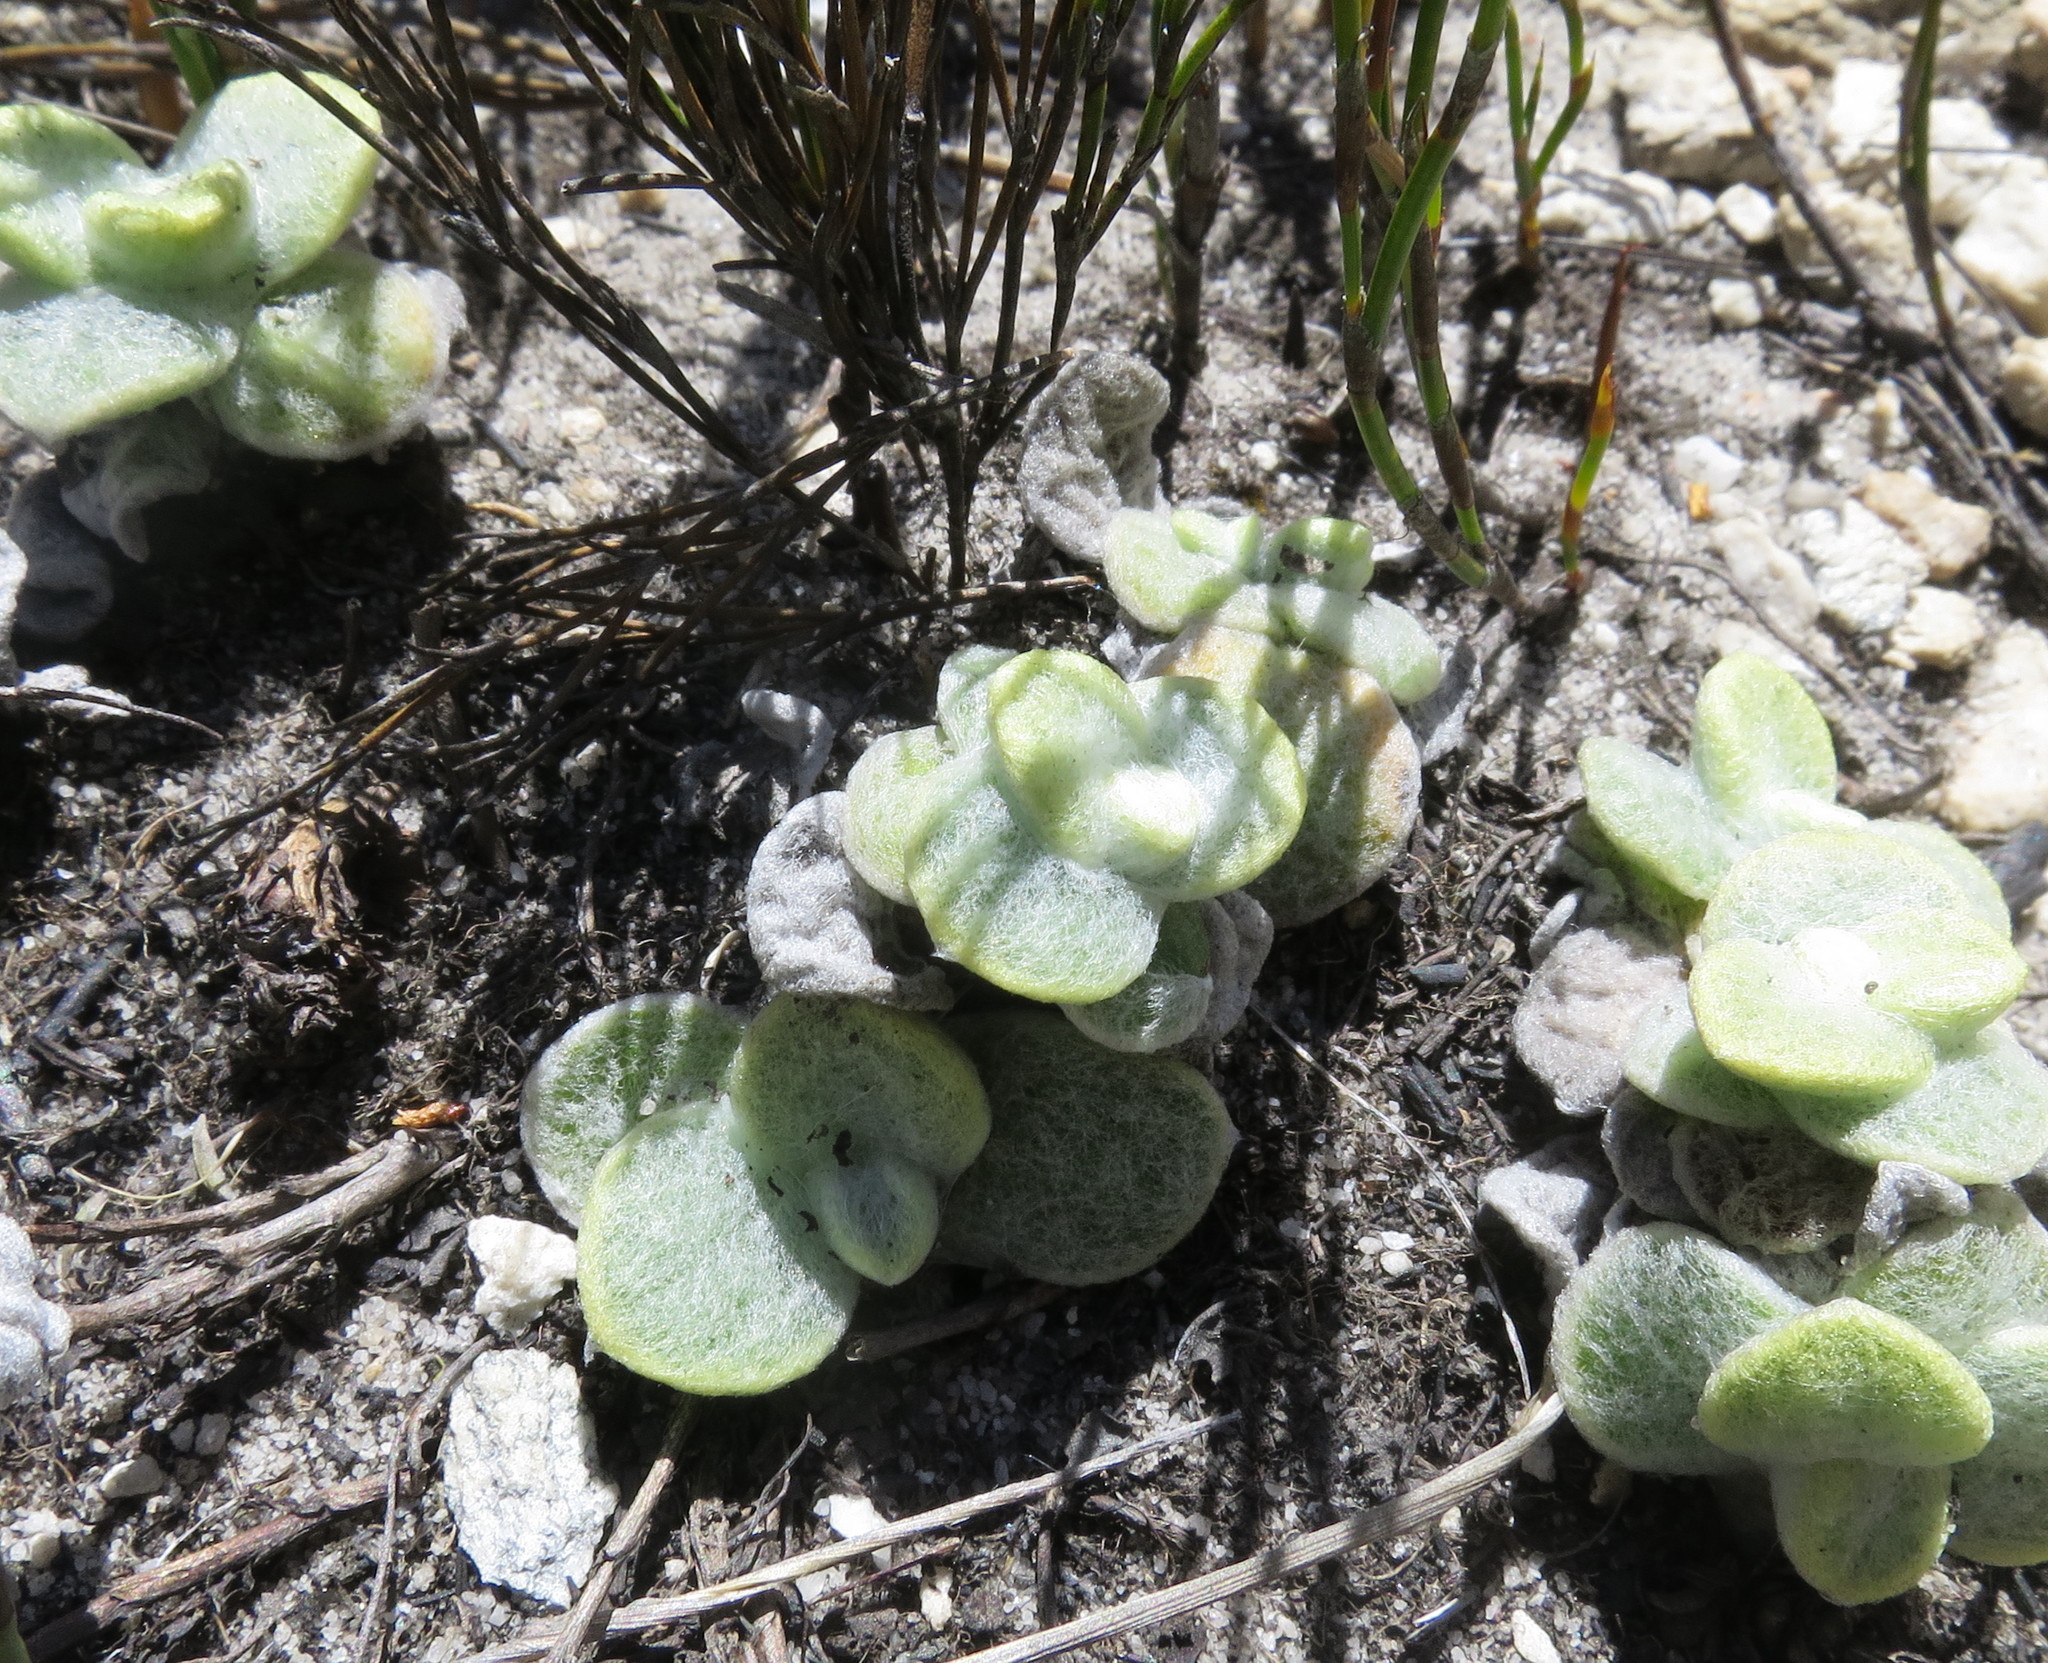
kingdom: Plantae
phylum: Tracheophyta
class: Magnoliopsida
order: Asterales
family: Asteraceae
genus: Helichrysum
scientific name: Helichrysum rotundifolium
